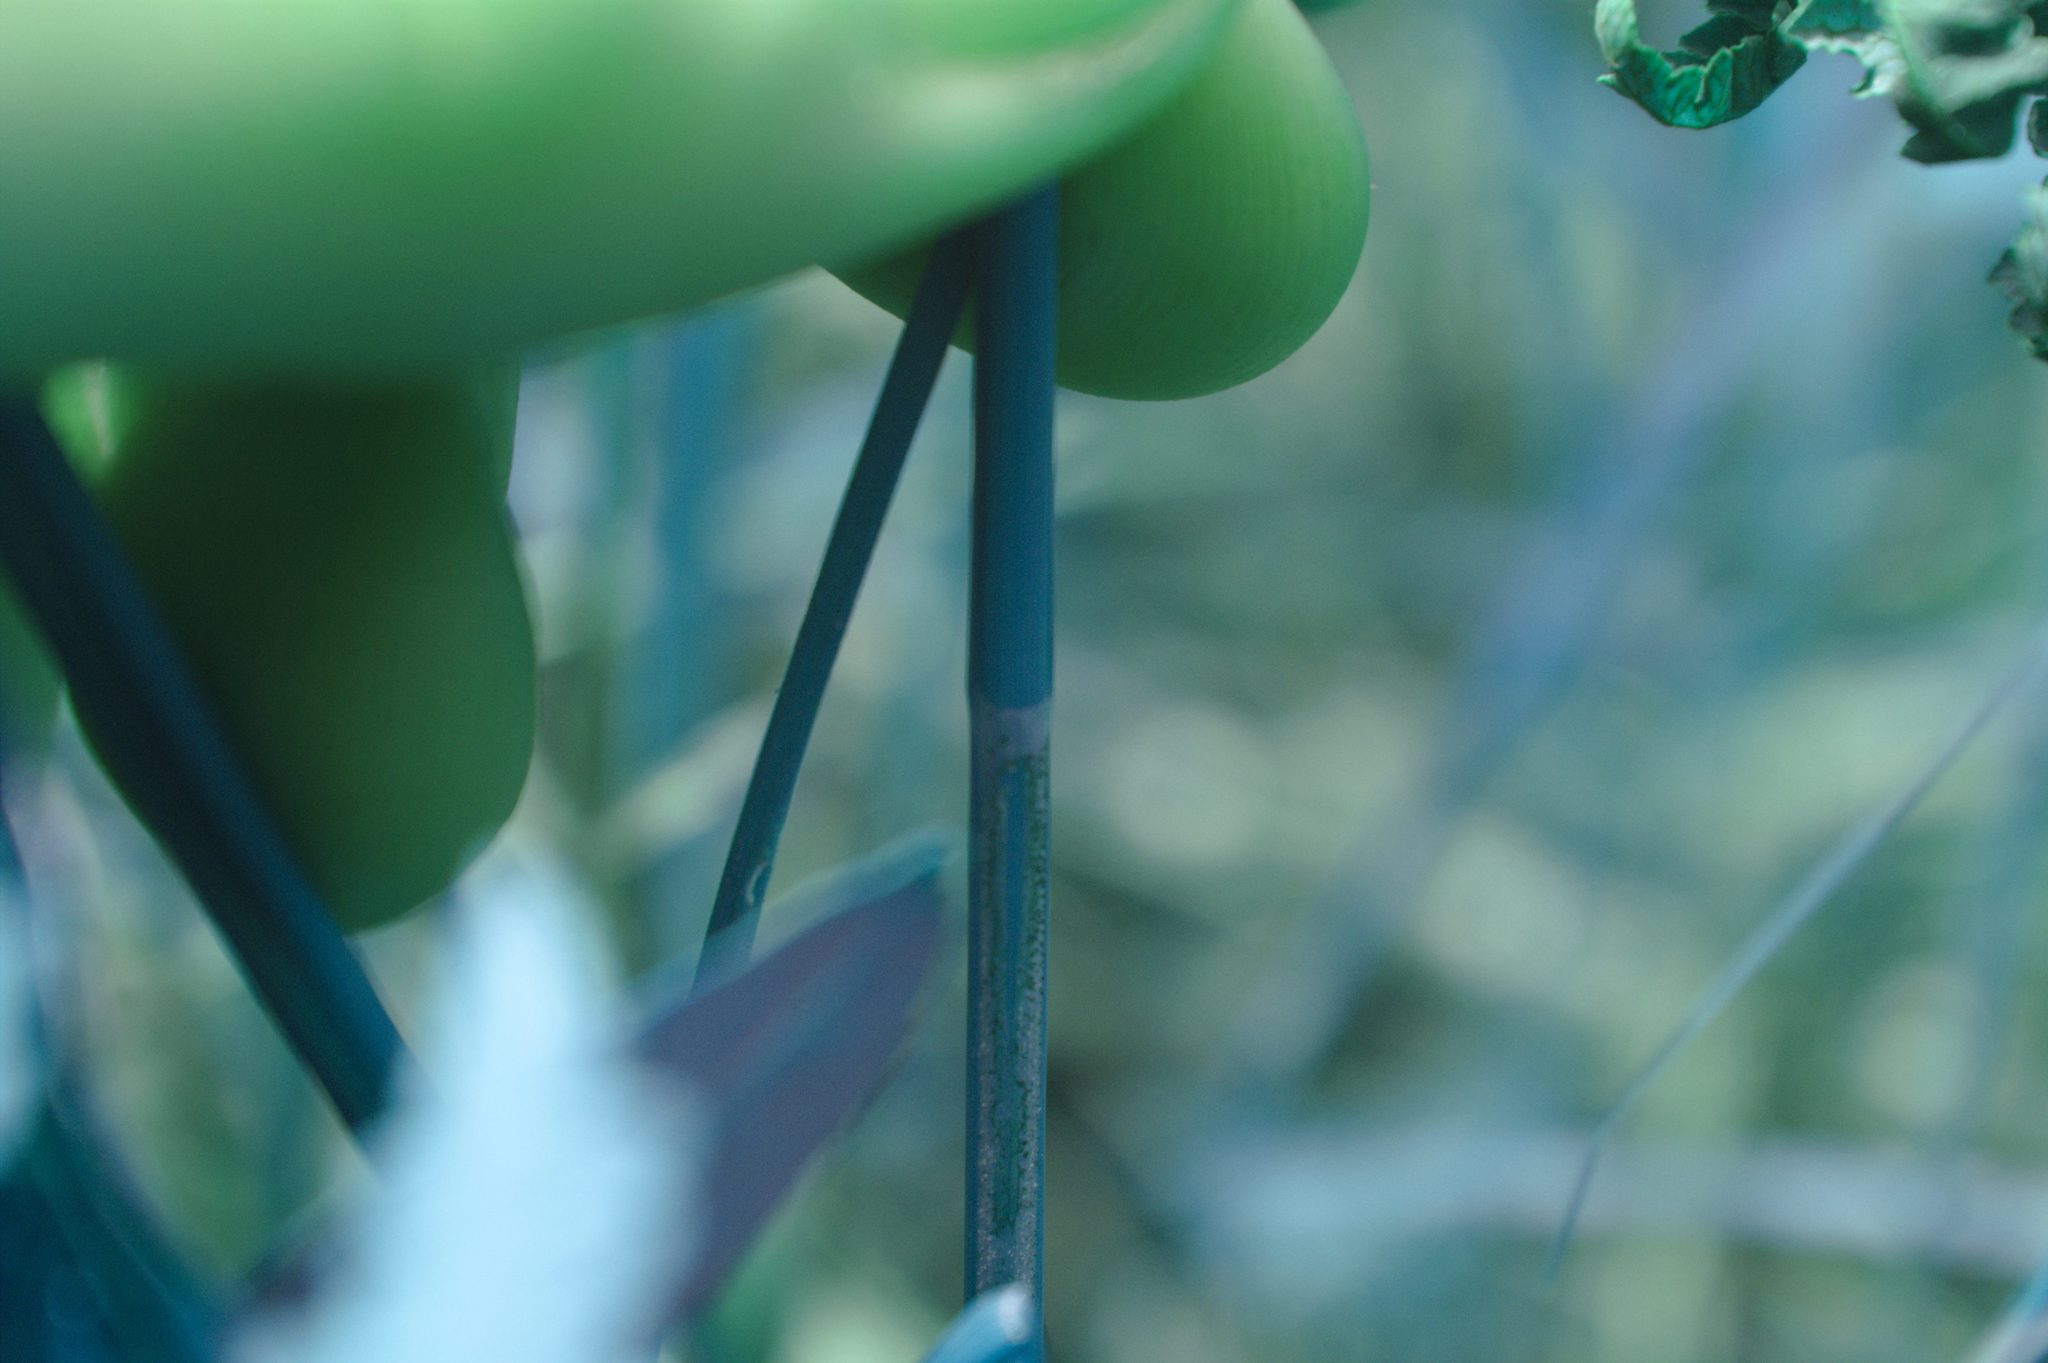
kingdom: Plantae
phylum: Tracheophyta
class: Liliopsida
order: Poales
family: Cyperaceae
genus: Carex
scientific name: Carex diandra
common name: Lesser tussock-sedge
